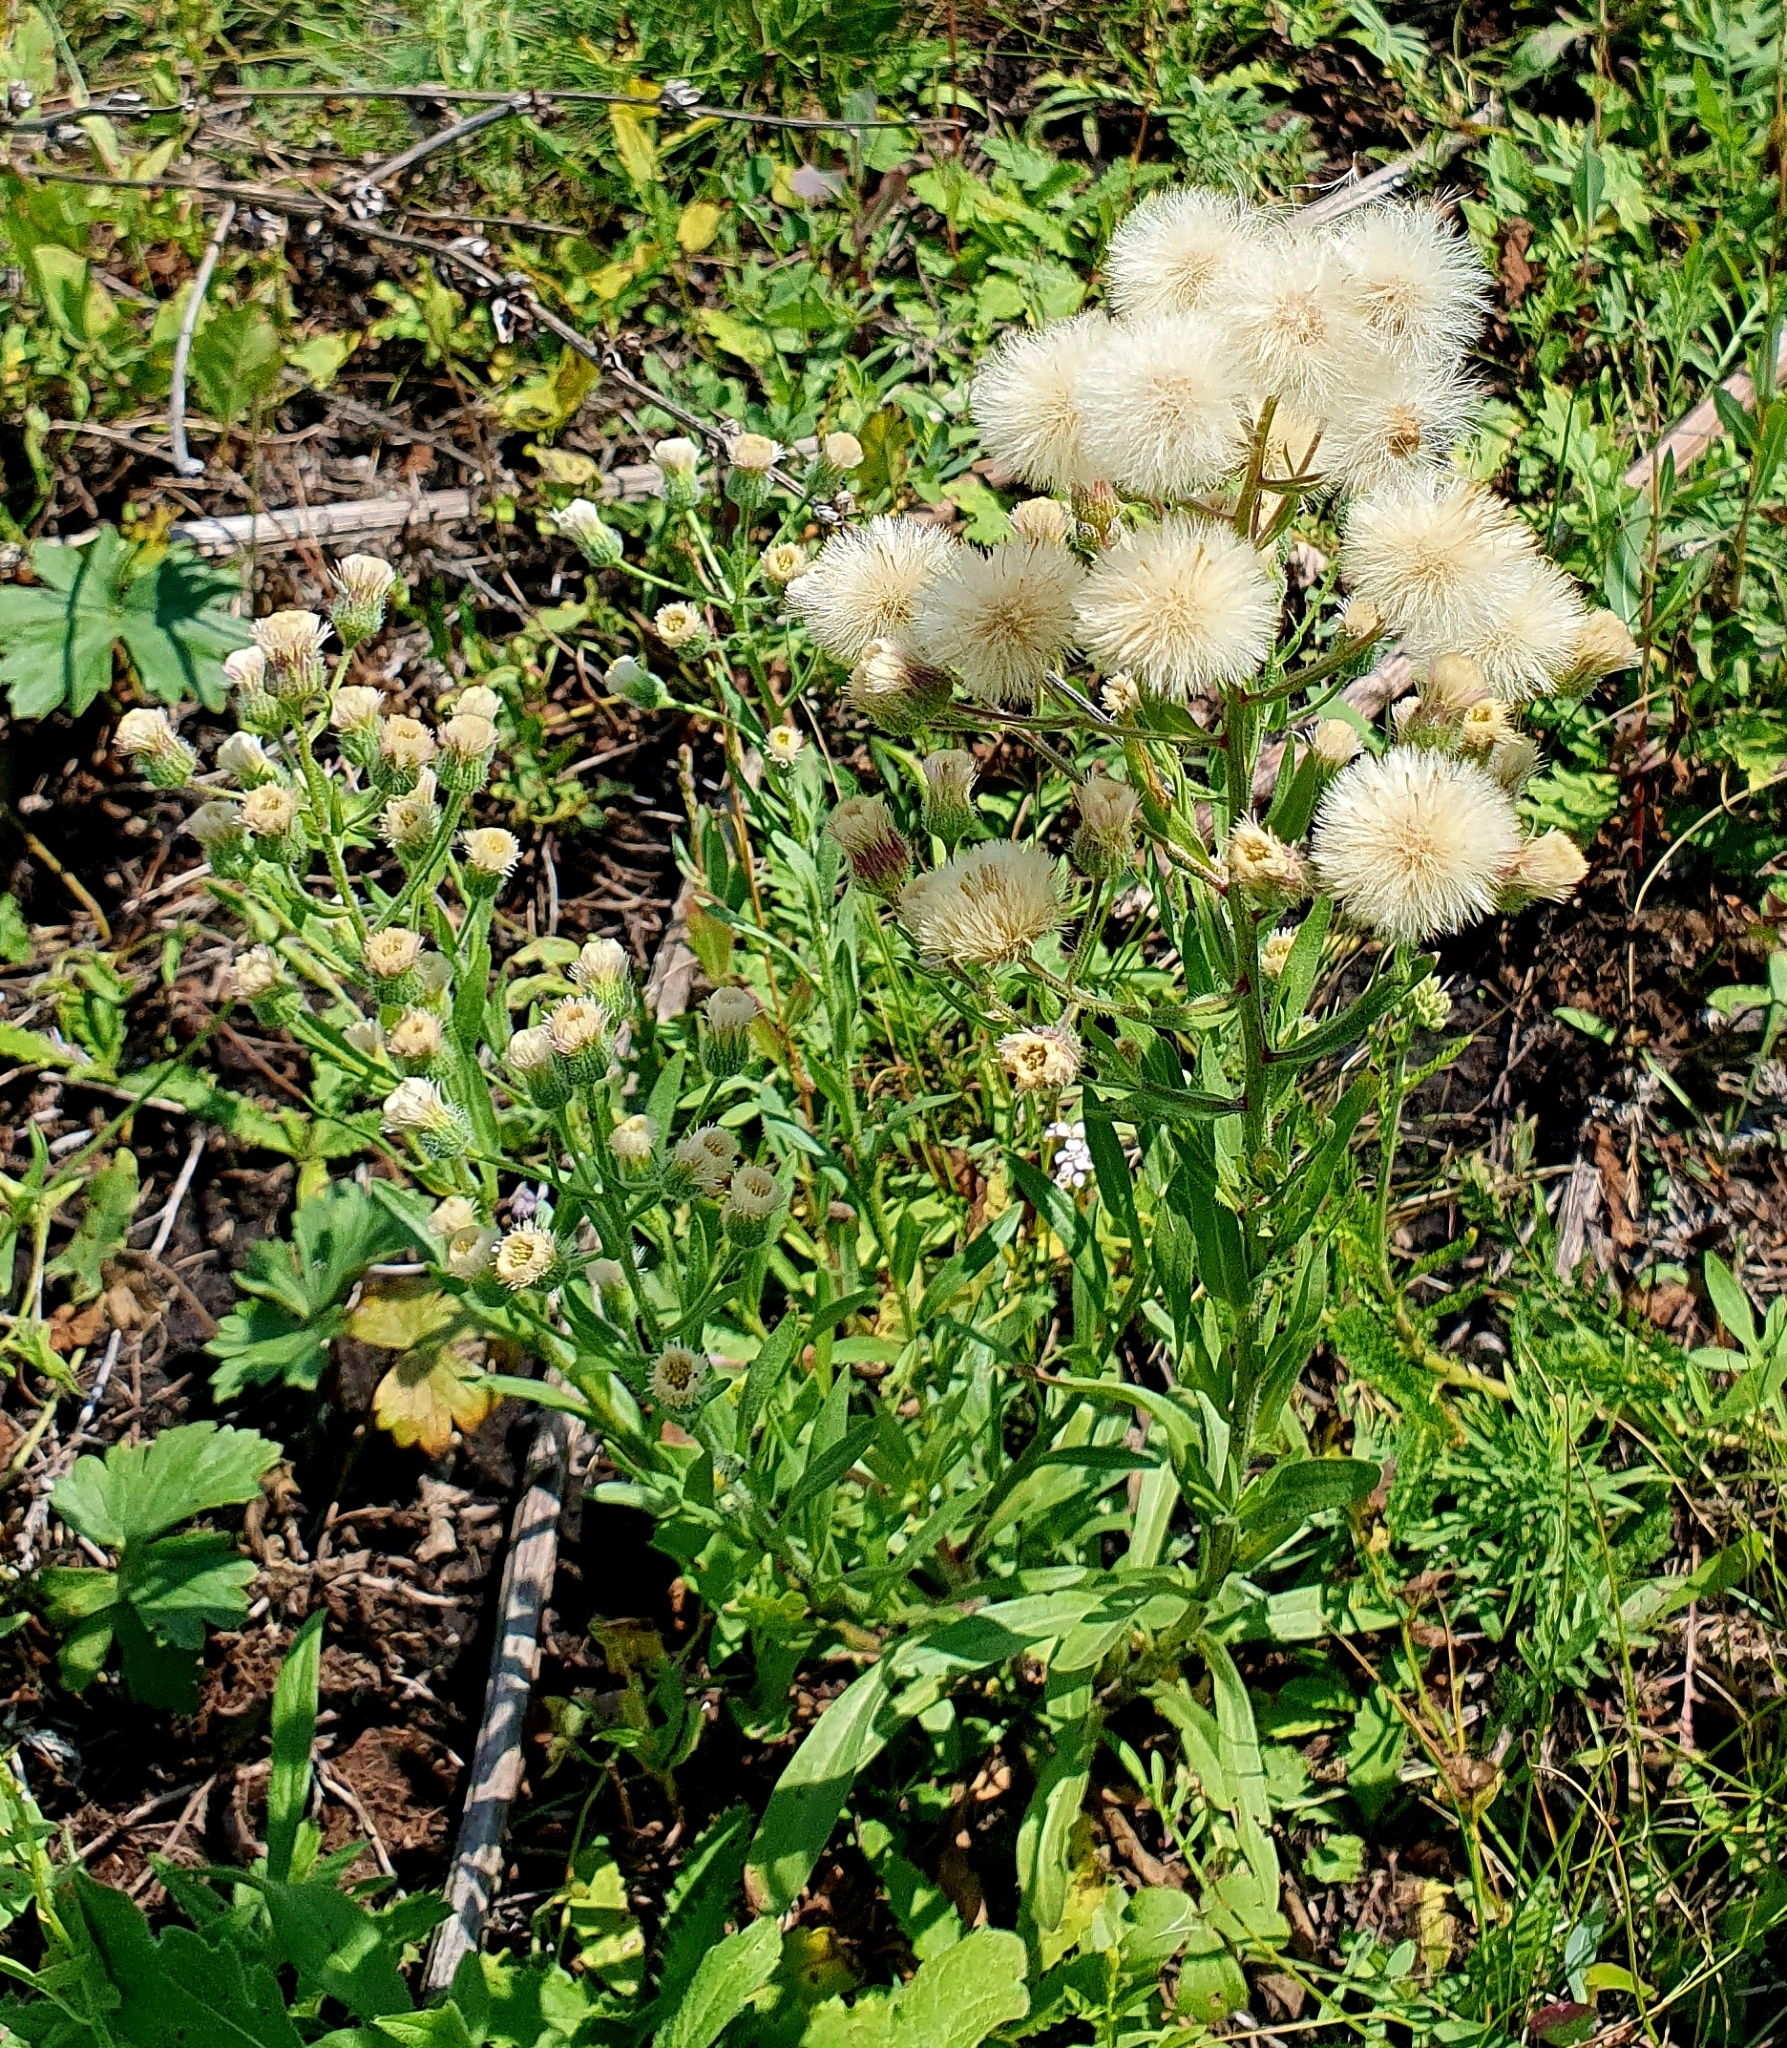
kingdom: Plantae
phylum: Tracheophyta
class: Magnoliopsida
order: Asterales
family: Asteraceae
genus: Erigeron
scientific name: Erigeron acris
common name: Blue fleabane
